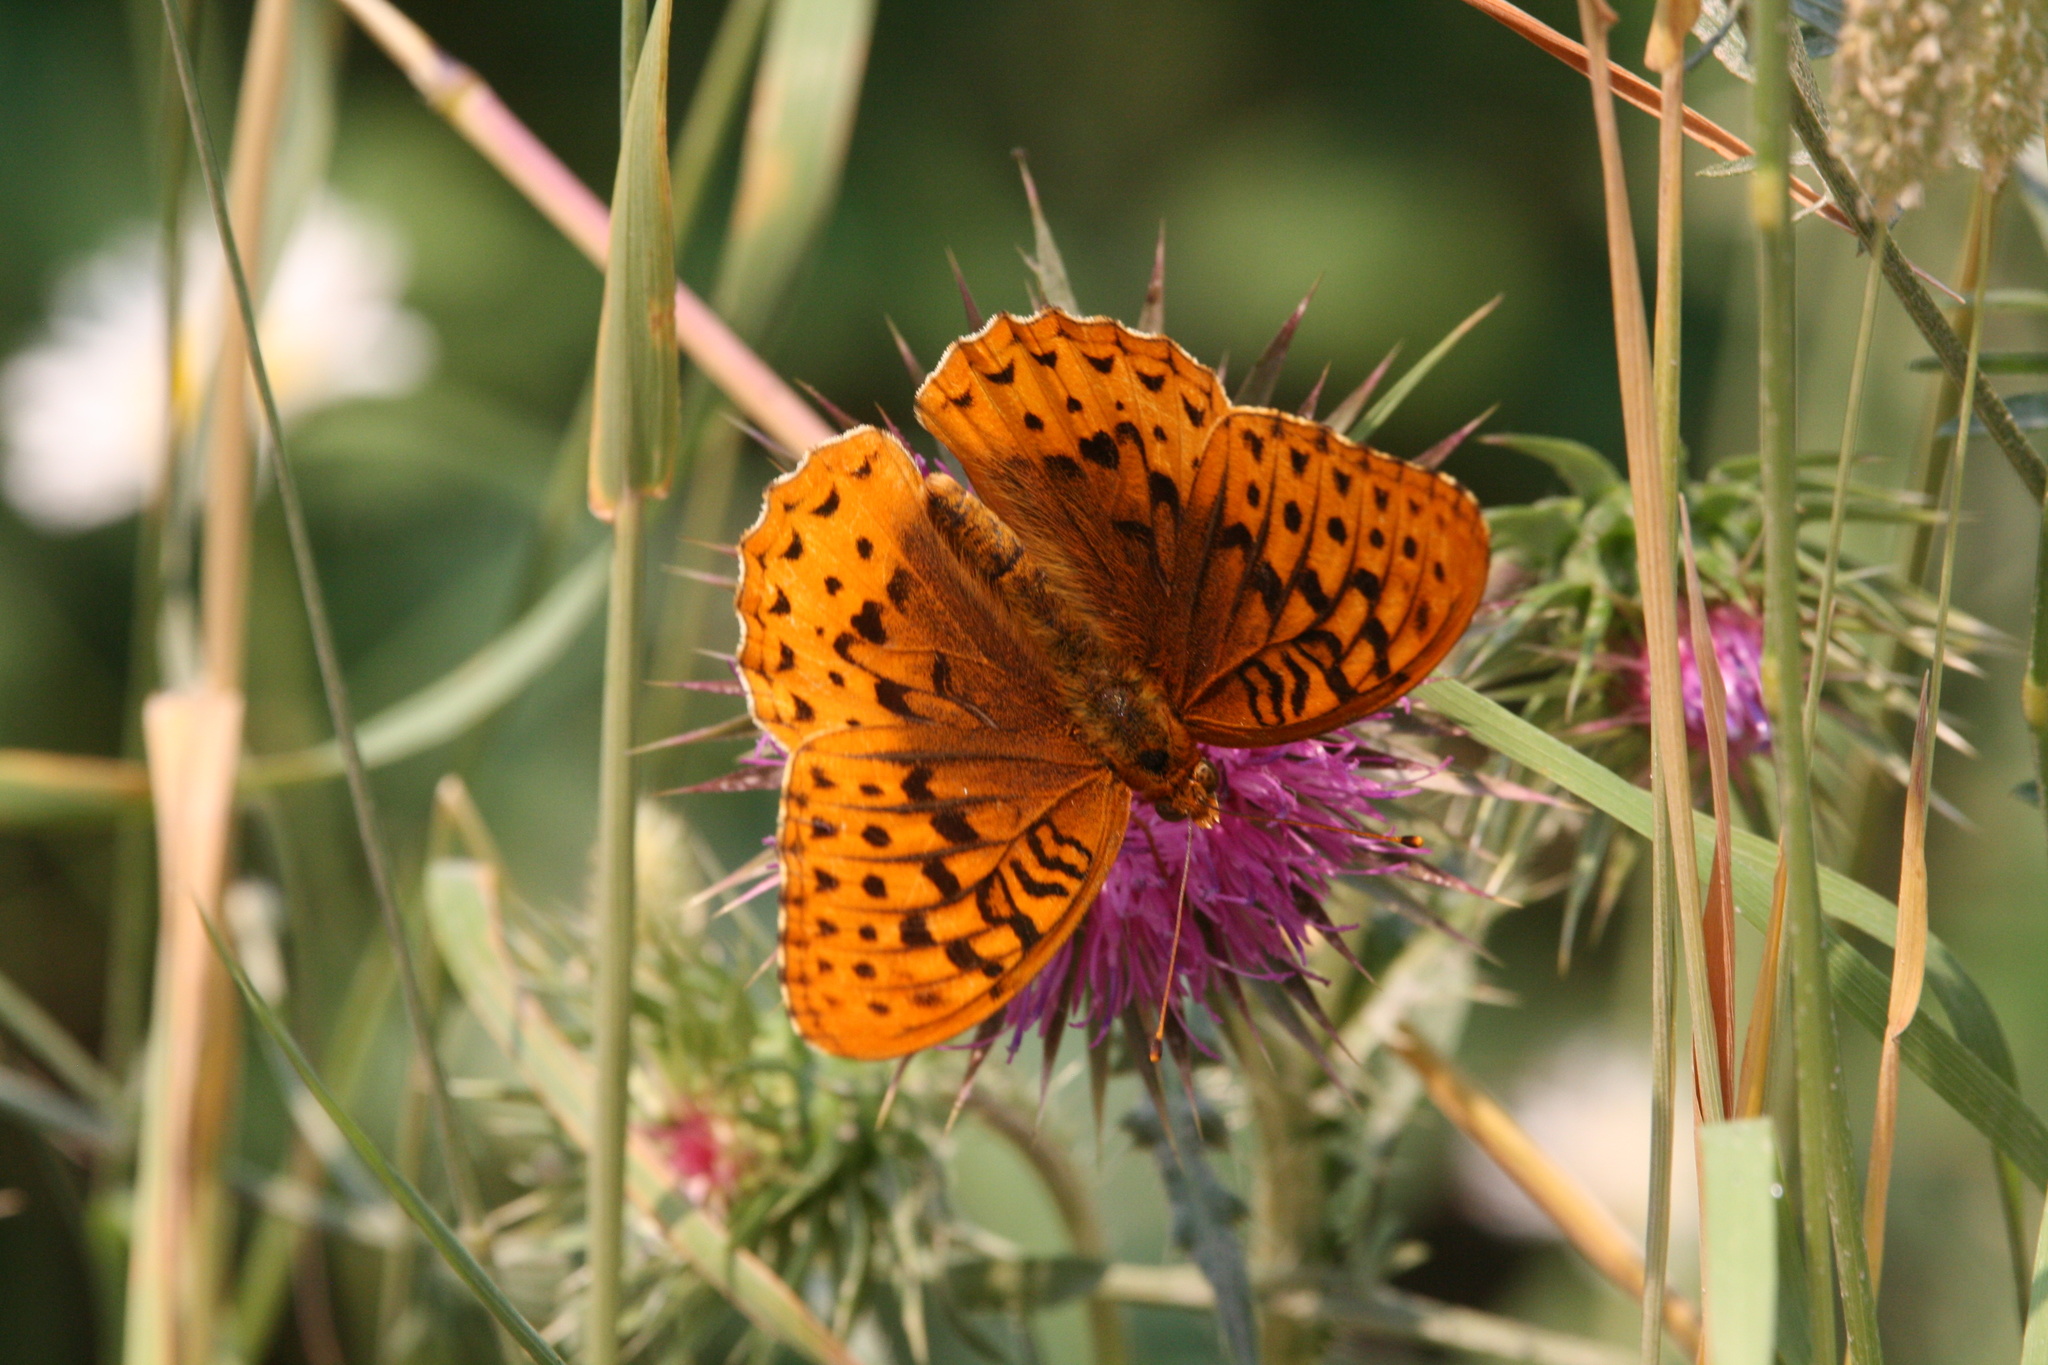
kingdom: Animalia
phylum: Arthropoda
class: Insecta
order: Lepidoptera
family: Nymphalidae
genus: Speyeria
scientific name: Speyeria cybele
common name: Great spangled fritillary
